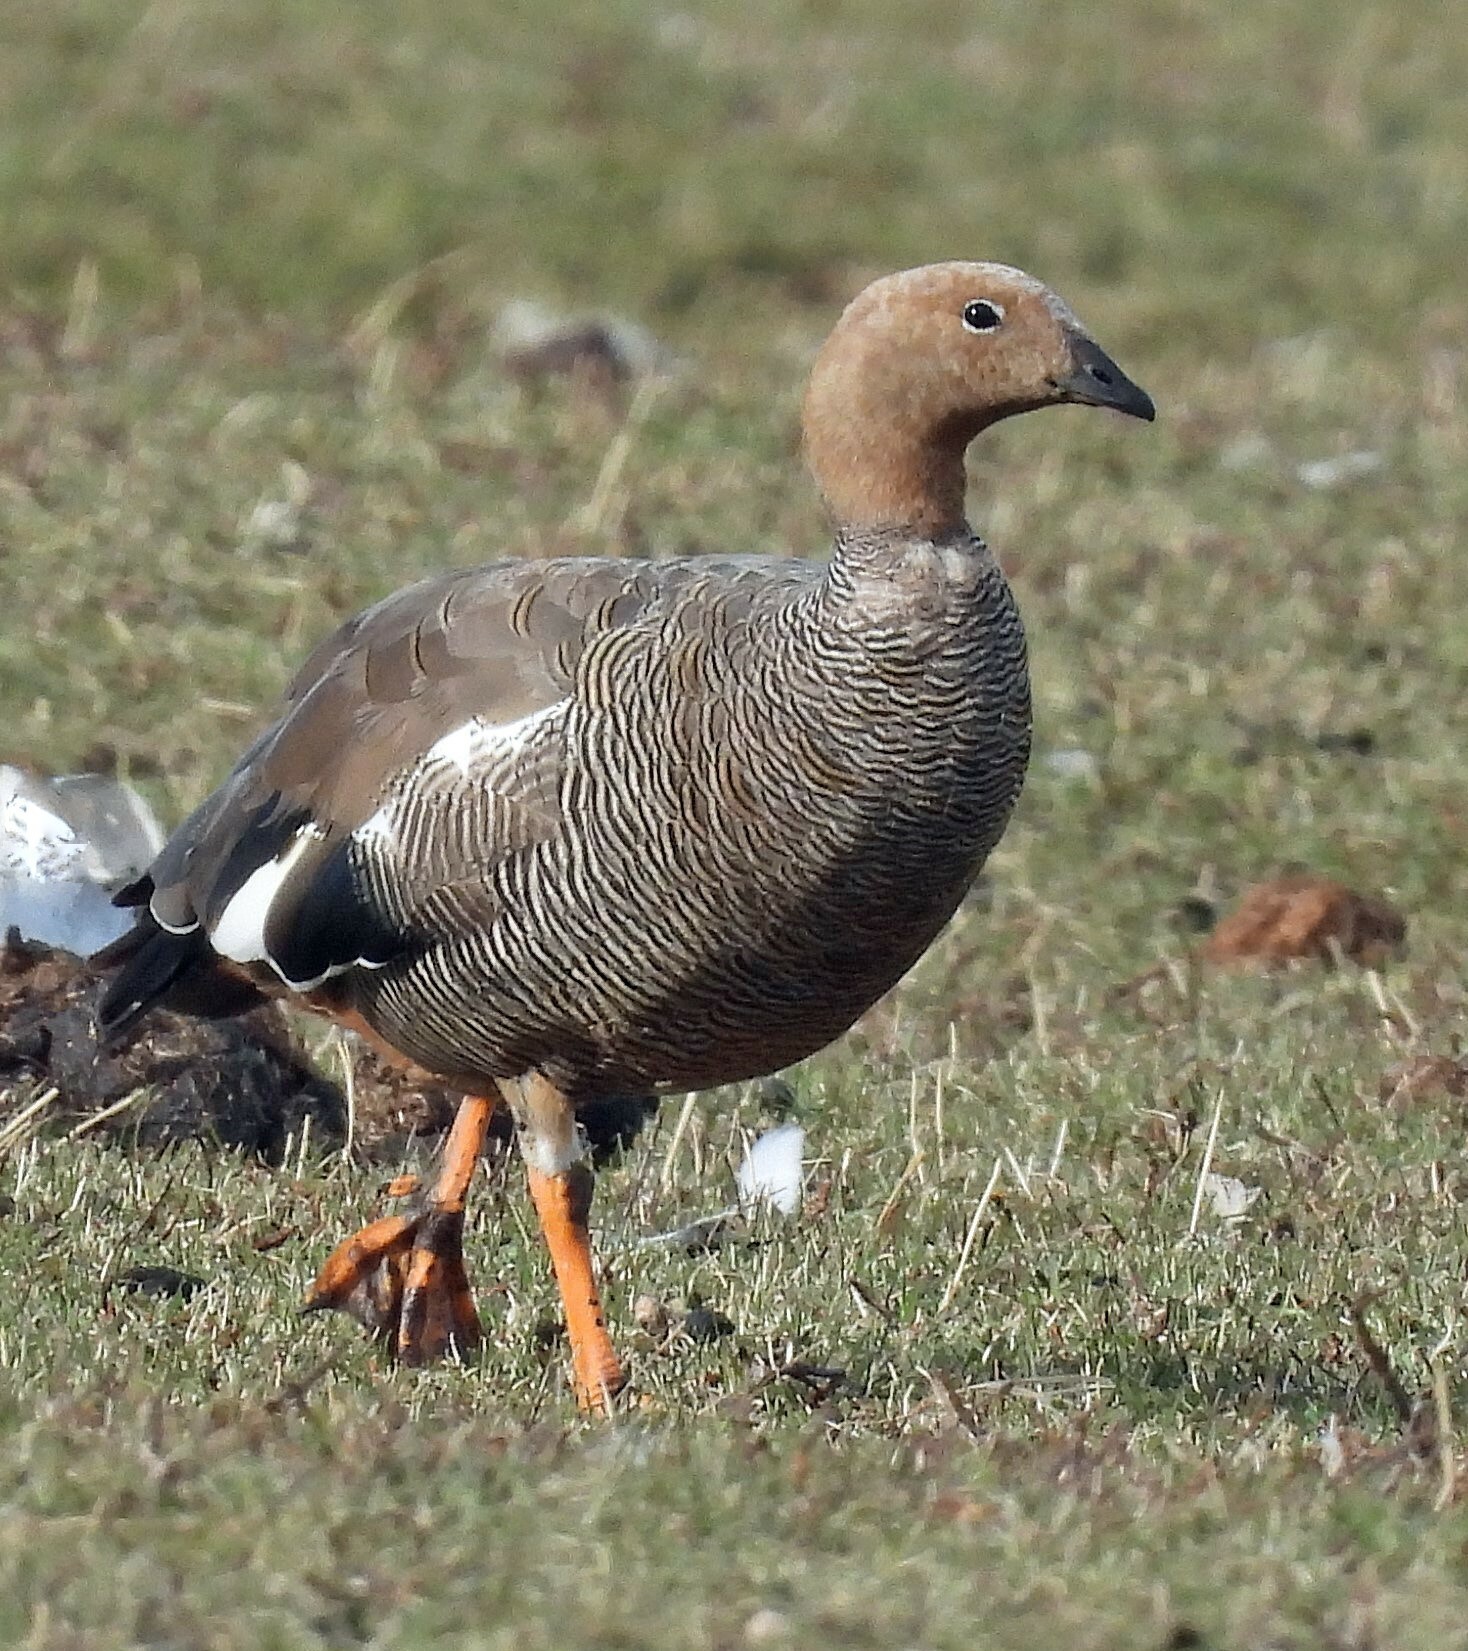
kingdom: Animalia
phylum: Chordata
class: Aves
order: Anseriformes
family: Anatidae
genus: Chloephaga
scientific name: Chloephaga rubidiceps
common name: Ruddy-headed goose
